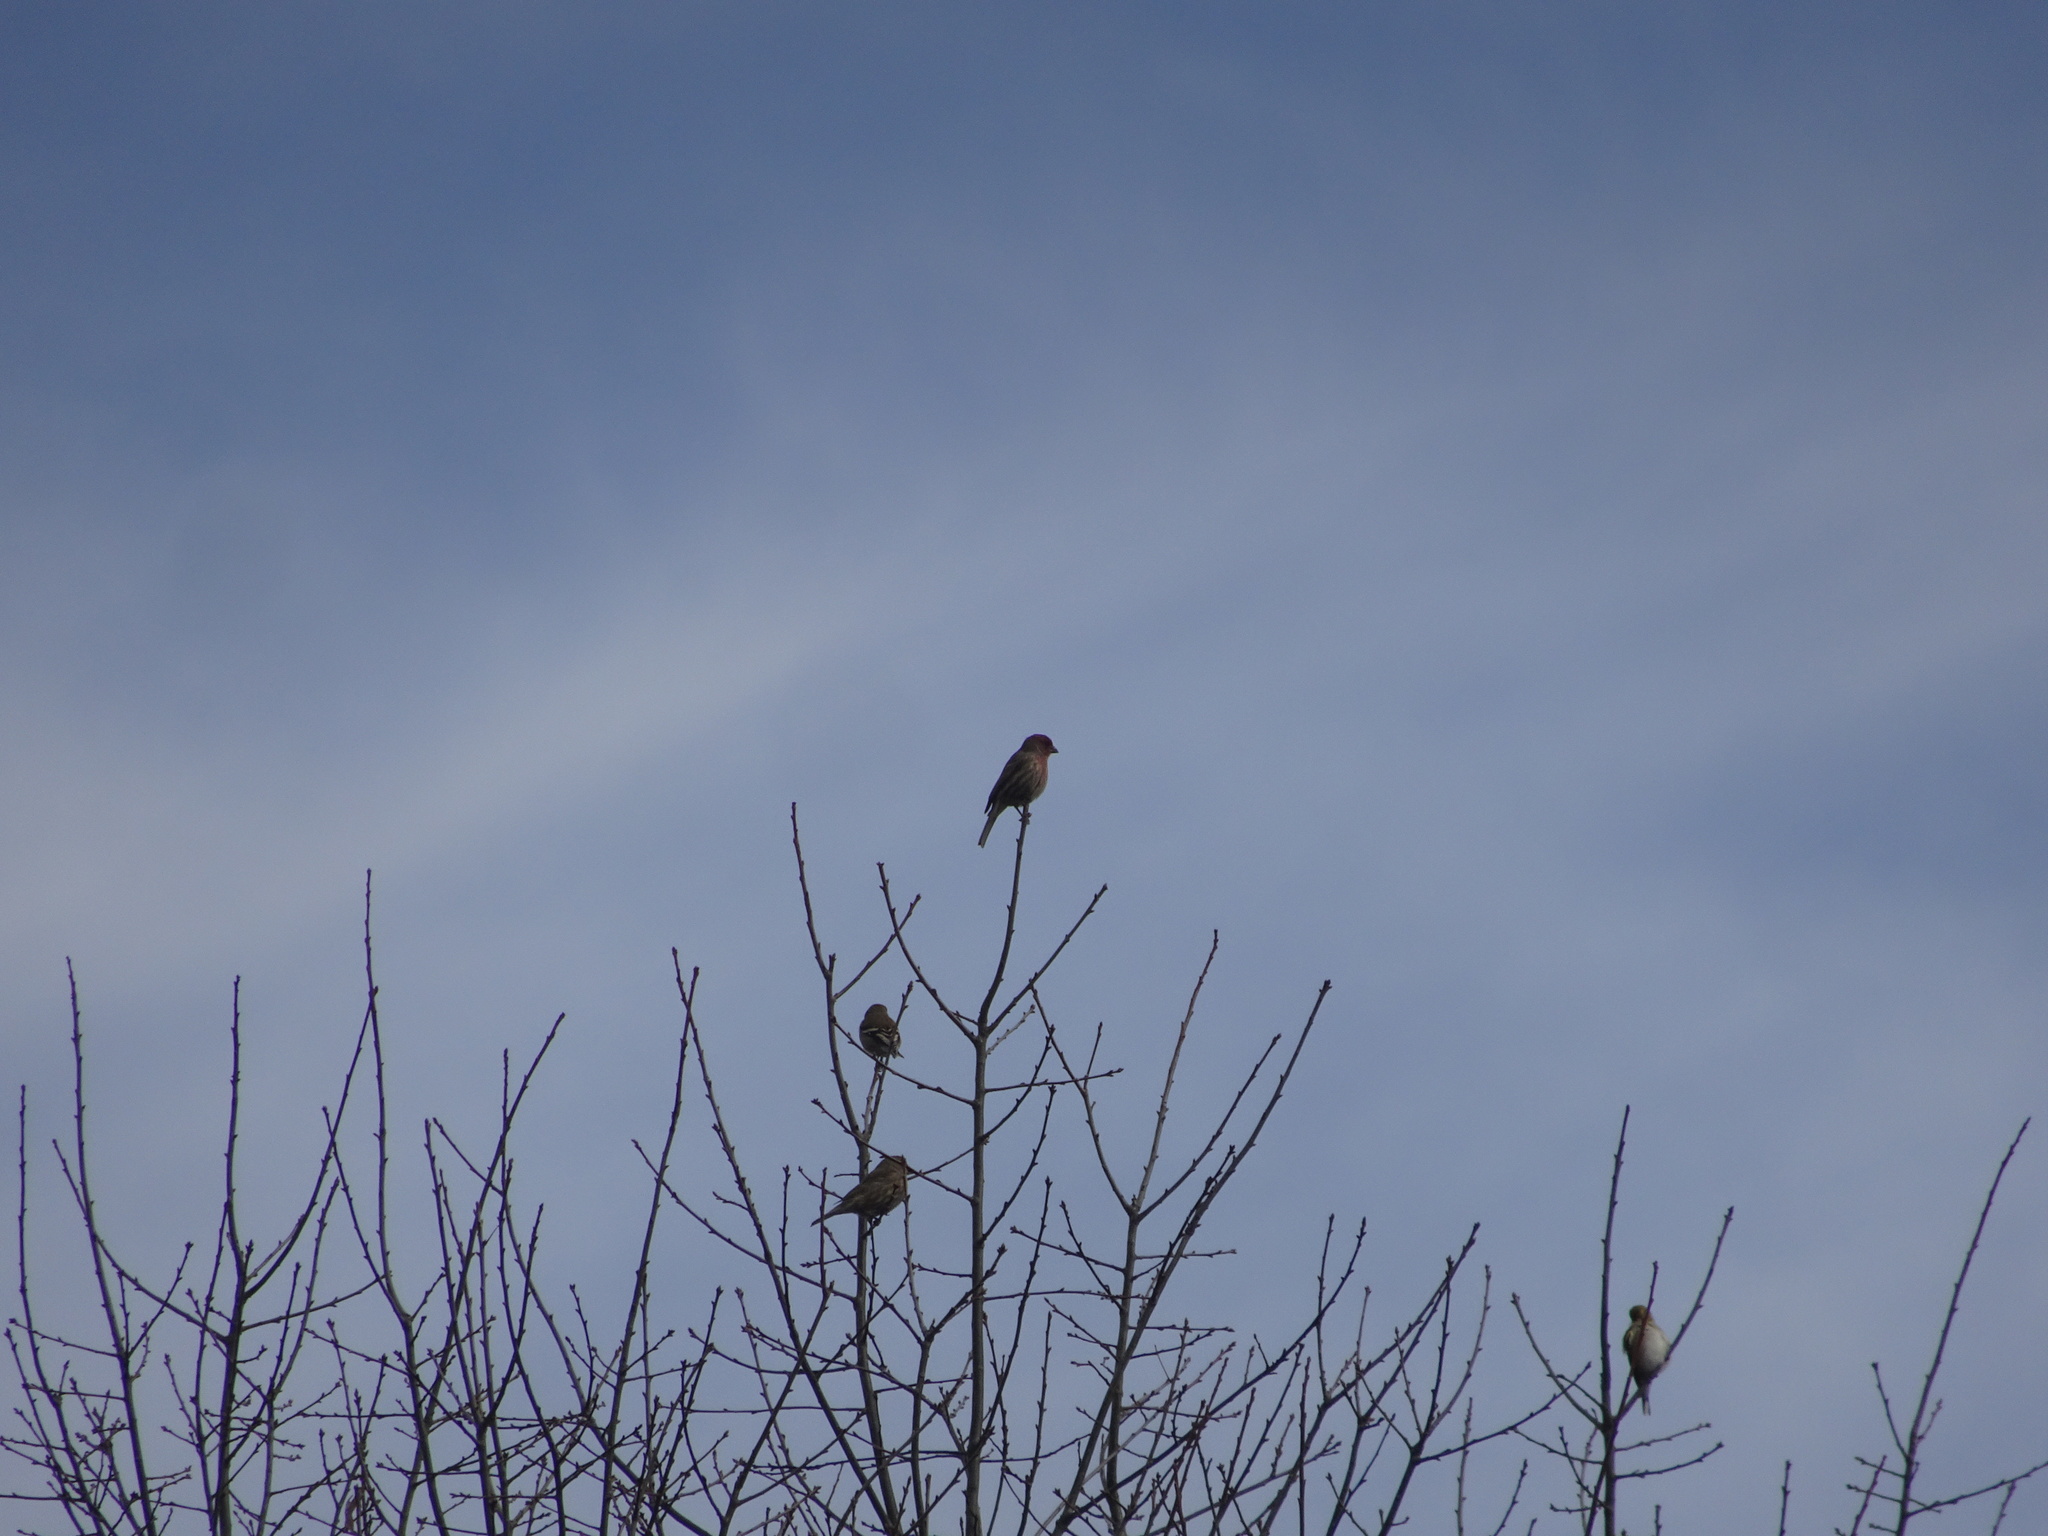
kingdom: Animalia
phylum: Chordata
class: Aves
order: Passeriformes
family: Fringillidae
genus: Spinus
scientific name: Spinus tristis
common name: American goldfinch
